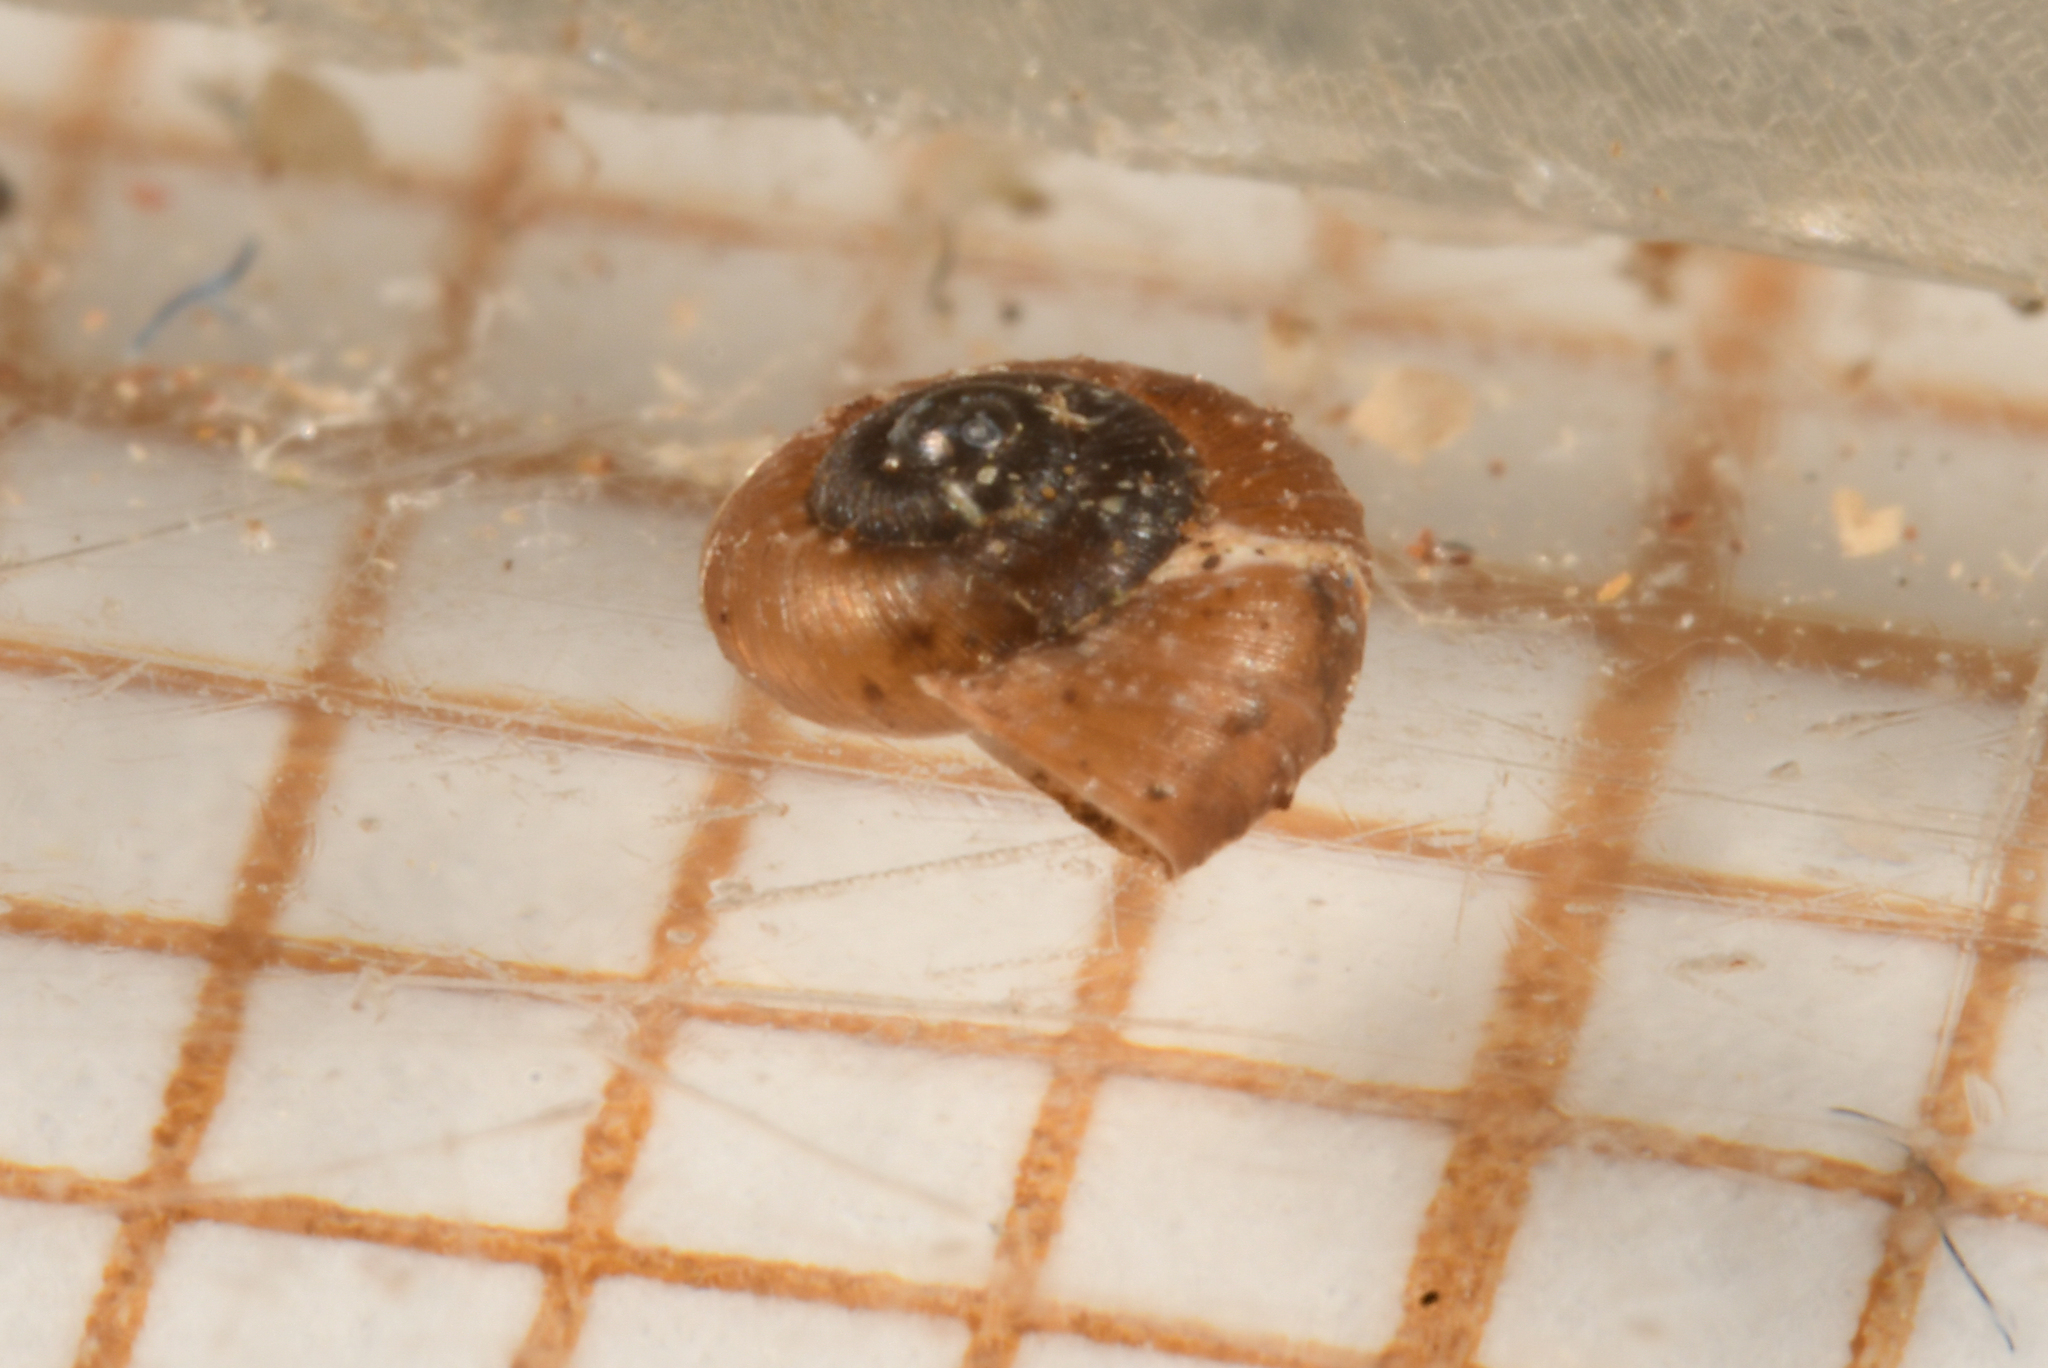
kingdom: Animalia
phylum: Mollusca
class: Gastropoda
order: Stylommatophora
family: Punctidae
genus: Paralaoma
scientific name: Paralaoma servilis
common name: Pinhead spot
